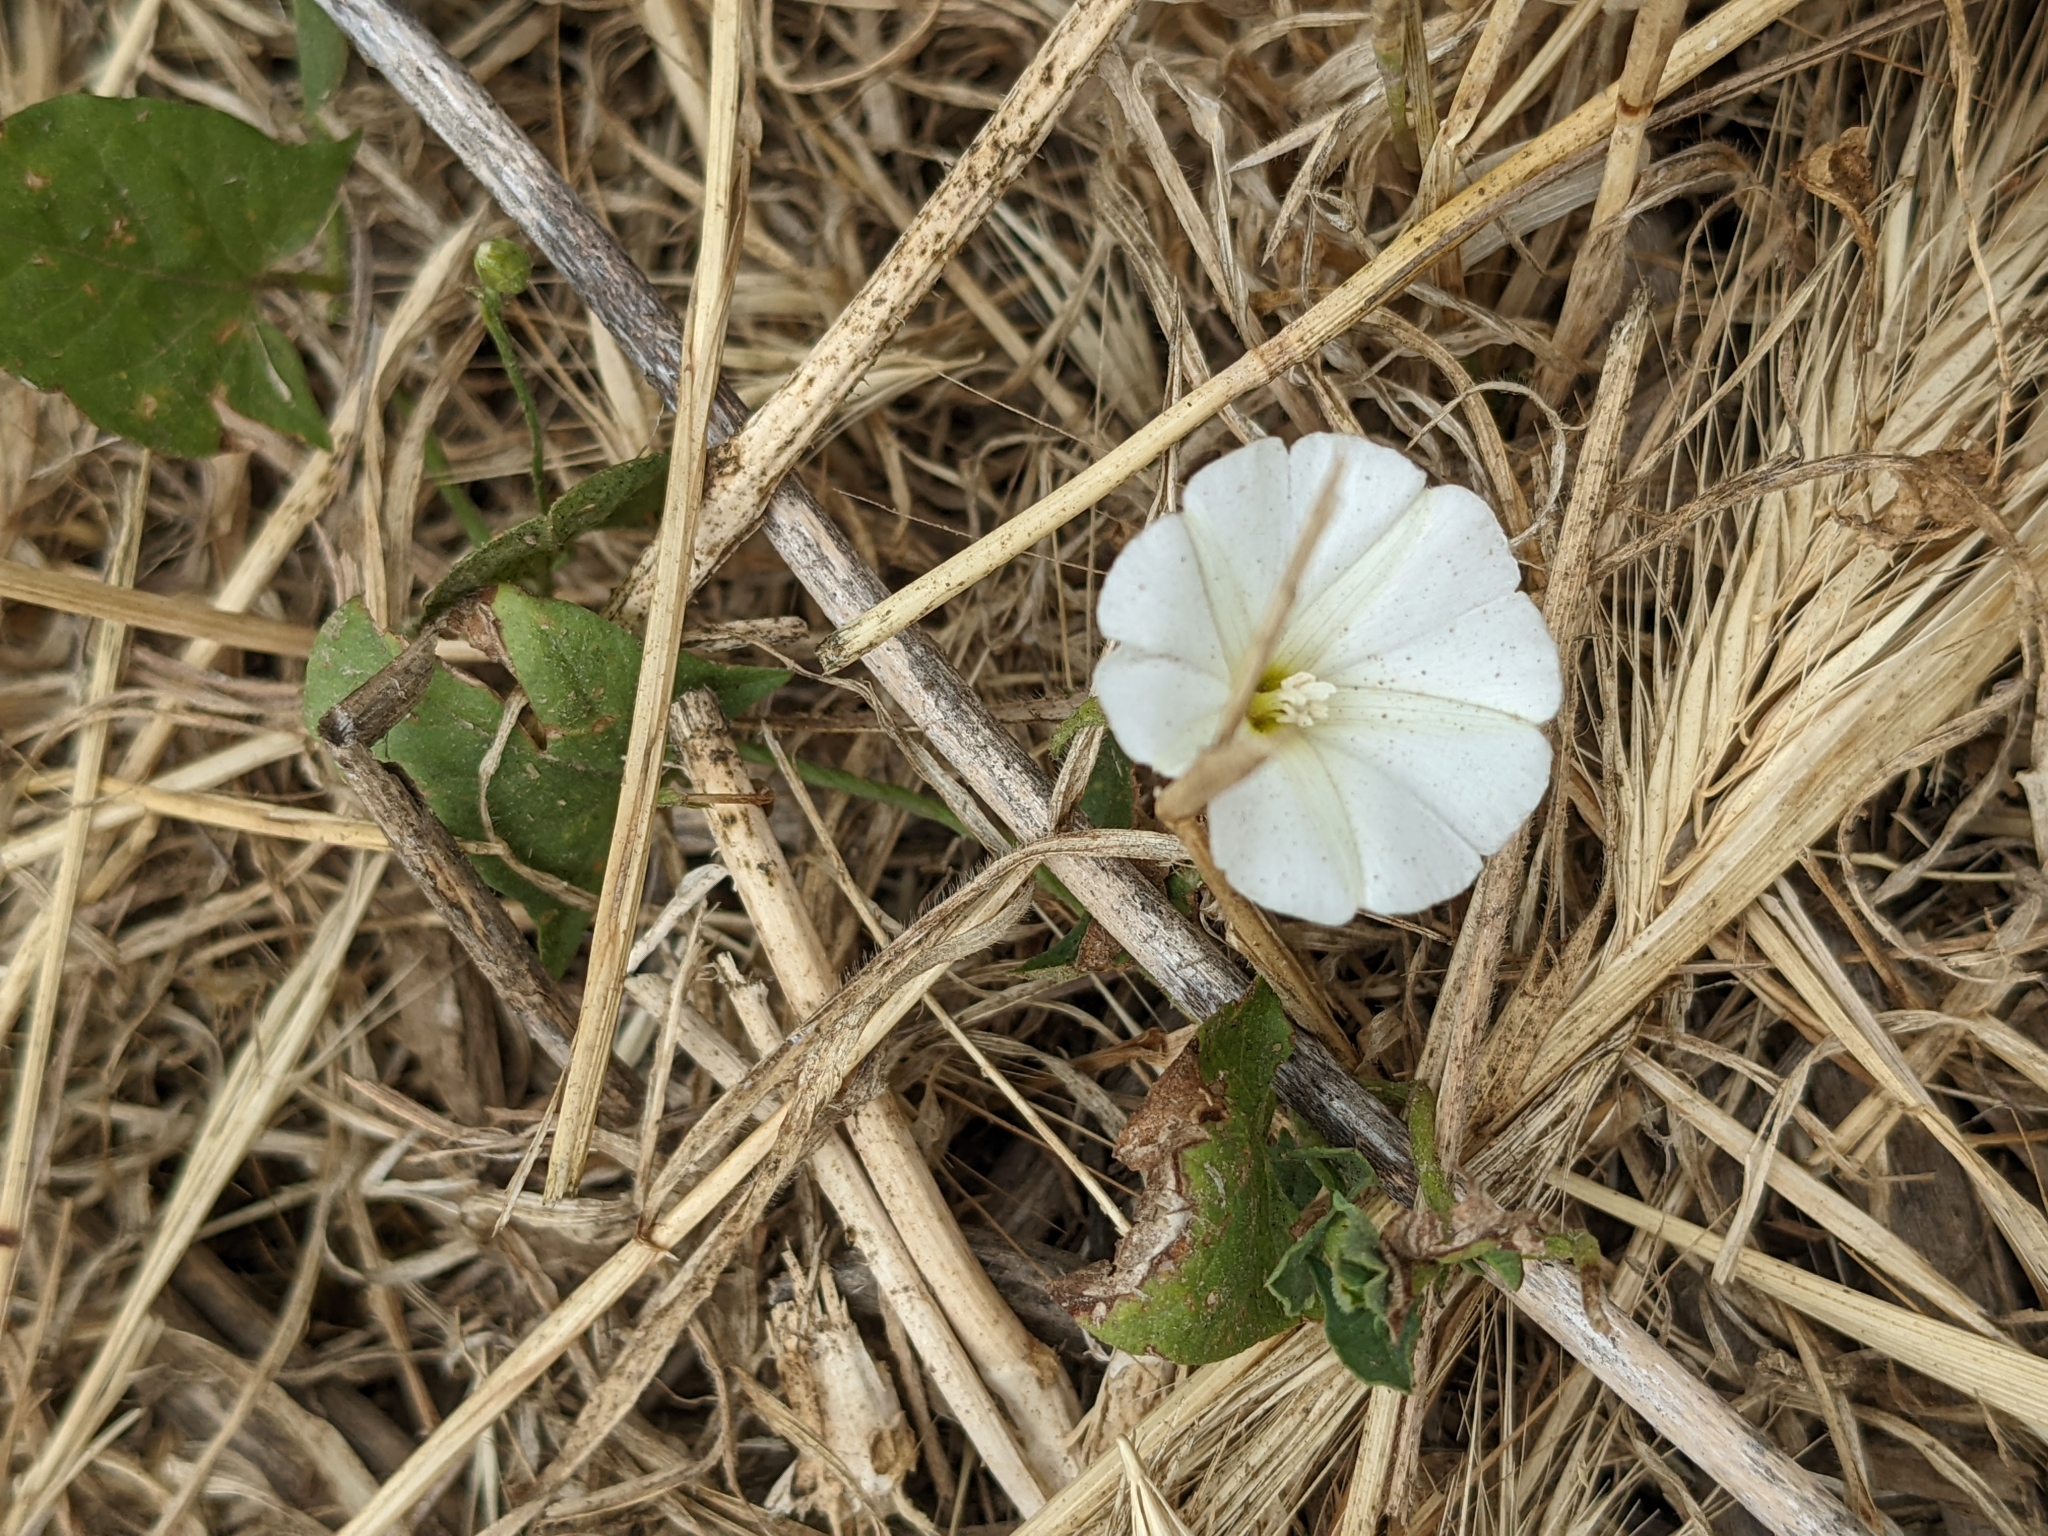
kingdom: Plantae
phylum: Tracheophyta
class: Magnoliopsida
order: Solanales
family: Convolvulaceae
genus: Convolvulus
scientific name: Convolvulus arvensis
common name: Field bindweed
